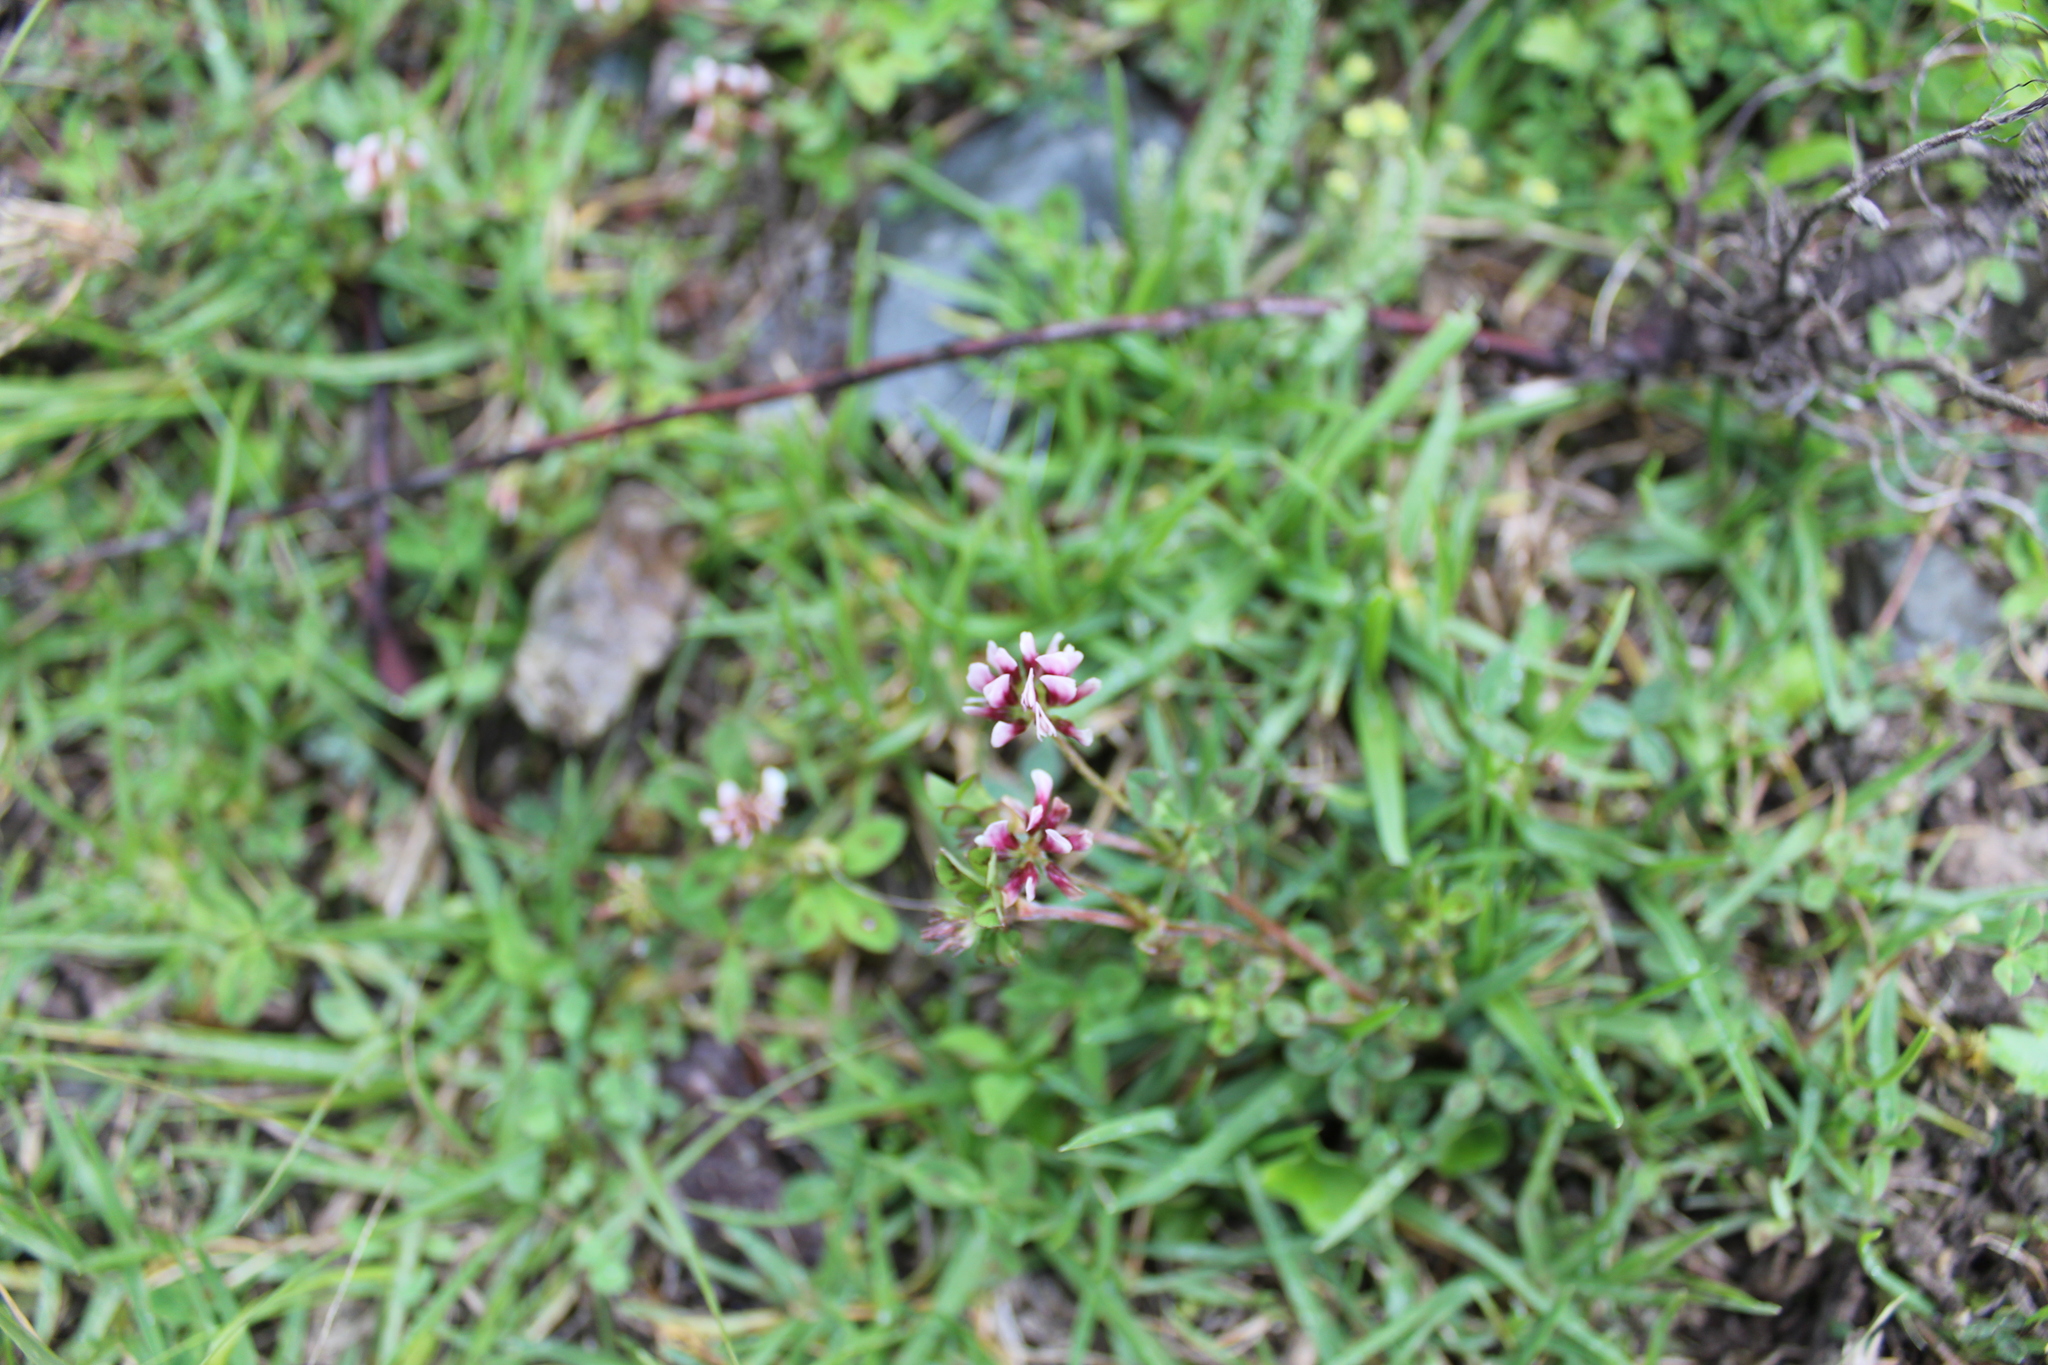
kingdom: Plantae
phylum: Tracheophyta
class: Magnoliopsida
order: Fabales
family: Fabaceae
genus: Trifolium
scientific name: Trifolium amabile
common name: Aztec clover
